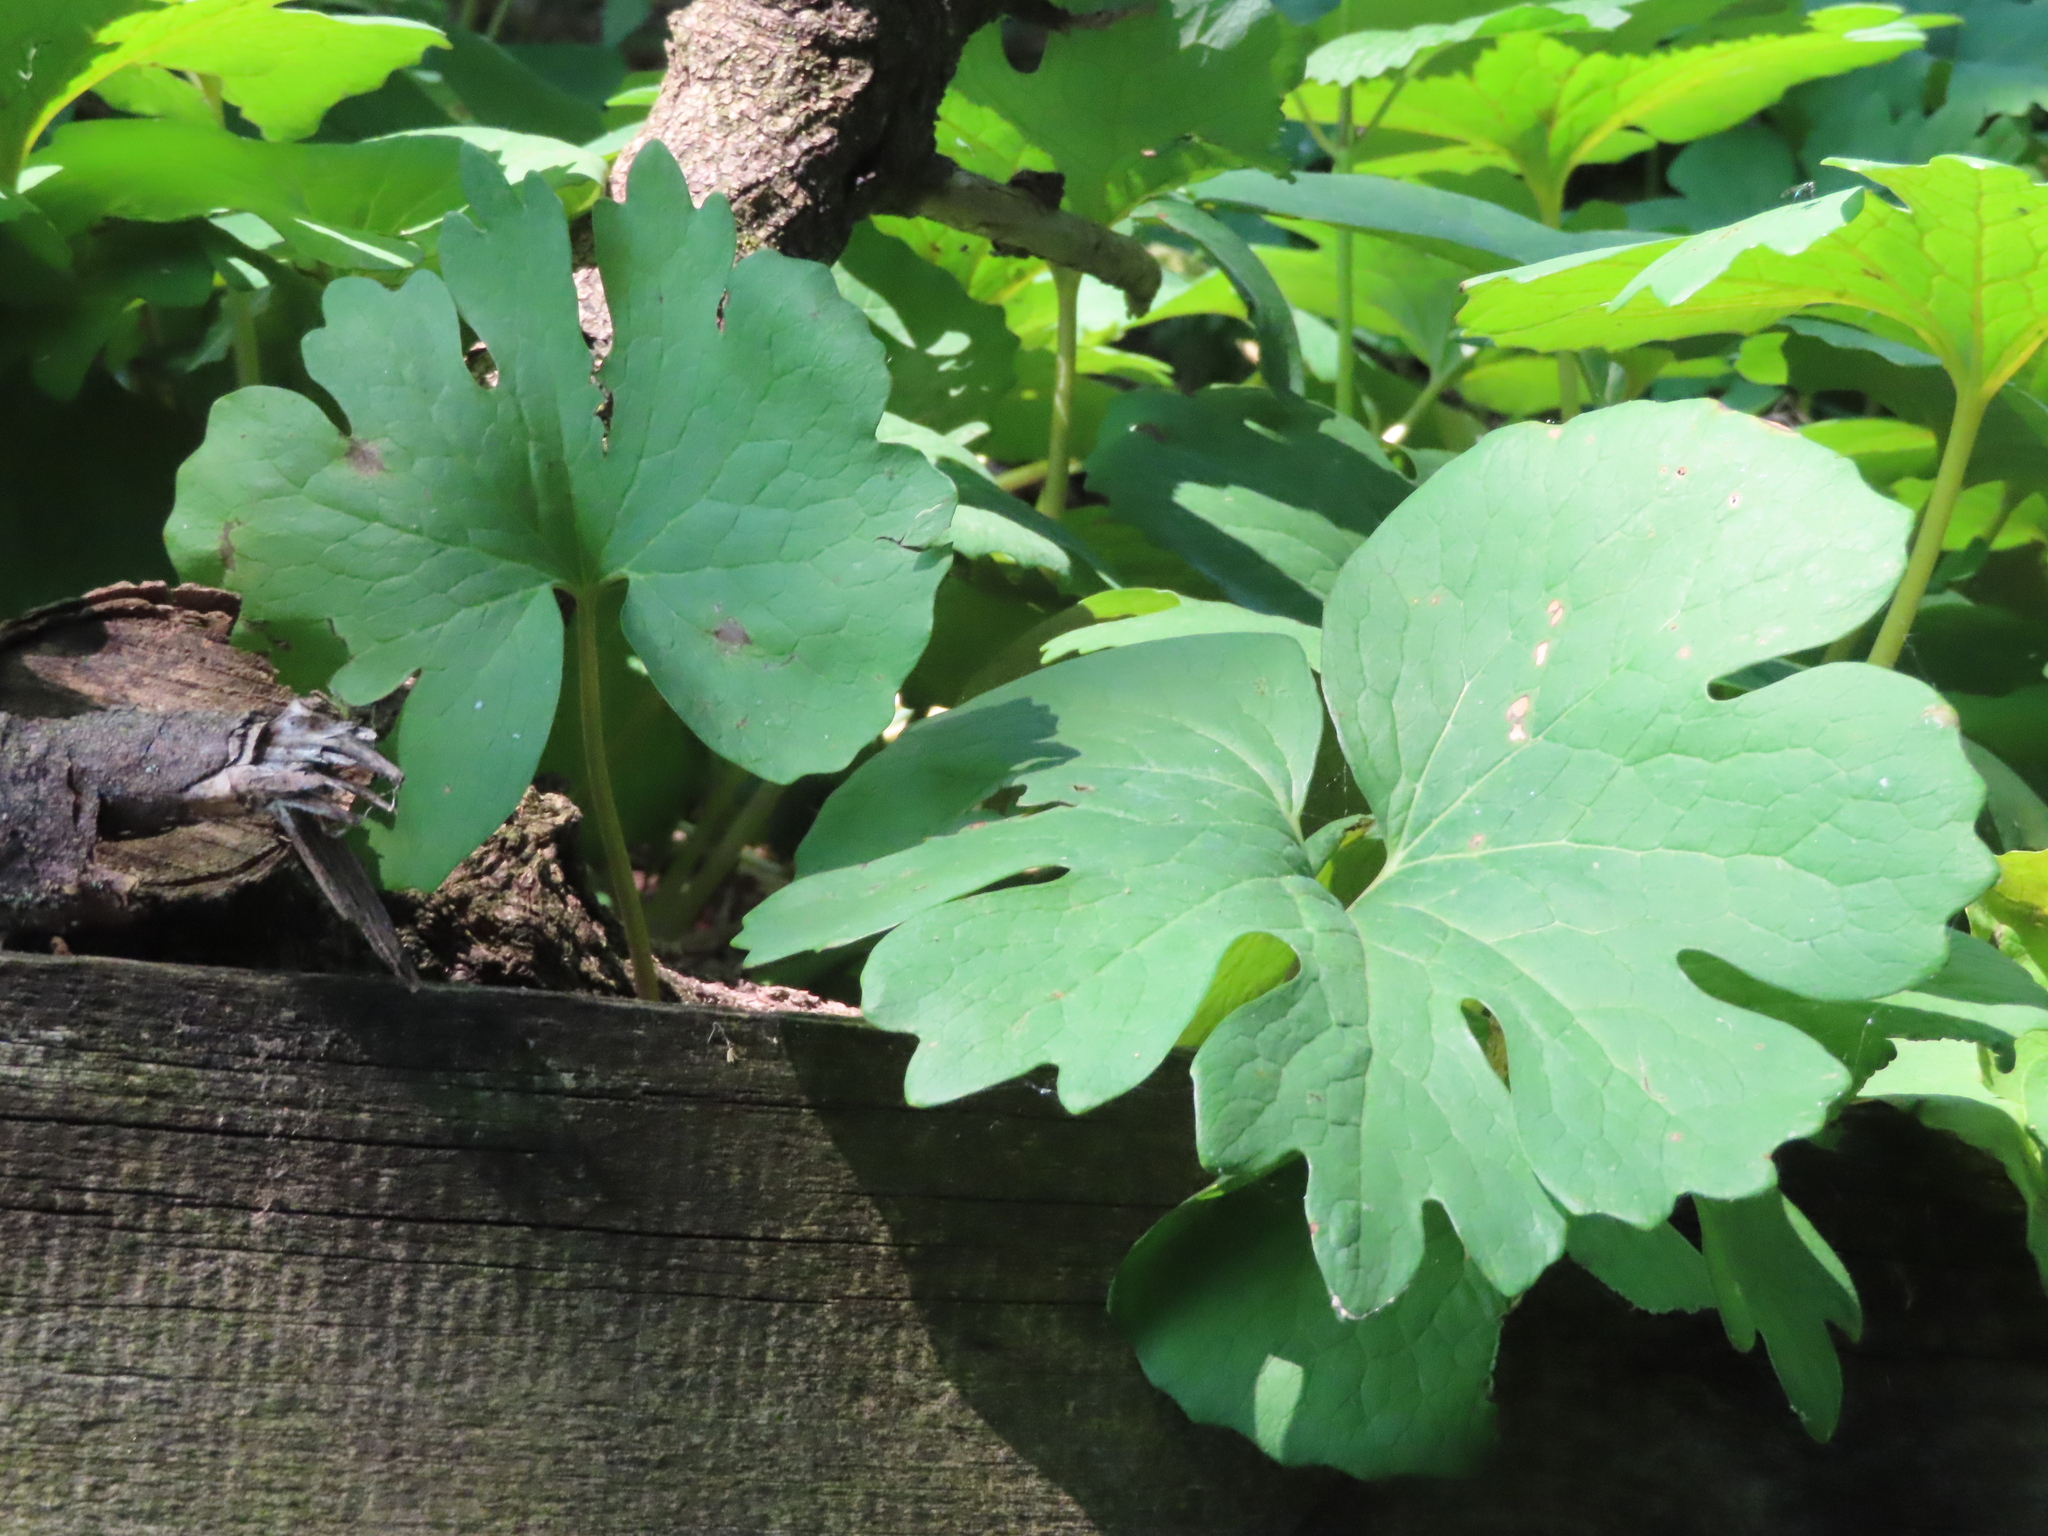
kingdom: Plantae
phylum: Tracheophyta
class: Magnoliopsida
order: Ranunculales
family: Papaveraceae
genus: Sanguinaria
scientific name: Sanguinaria canadensis
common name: Bloodroot
